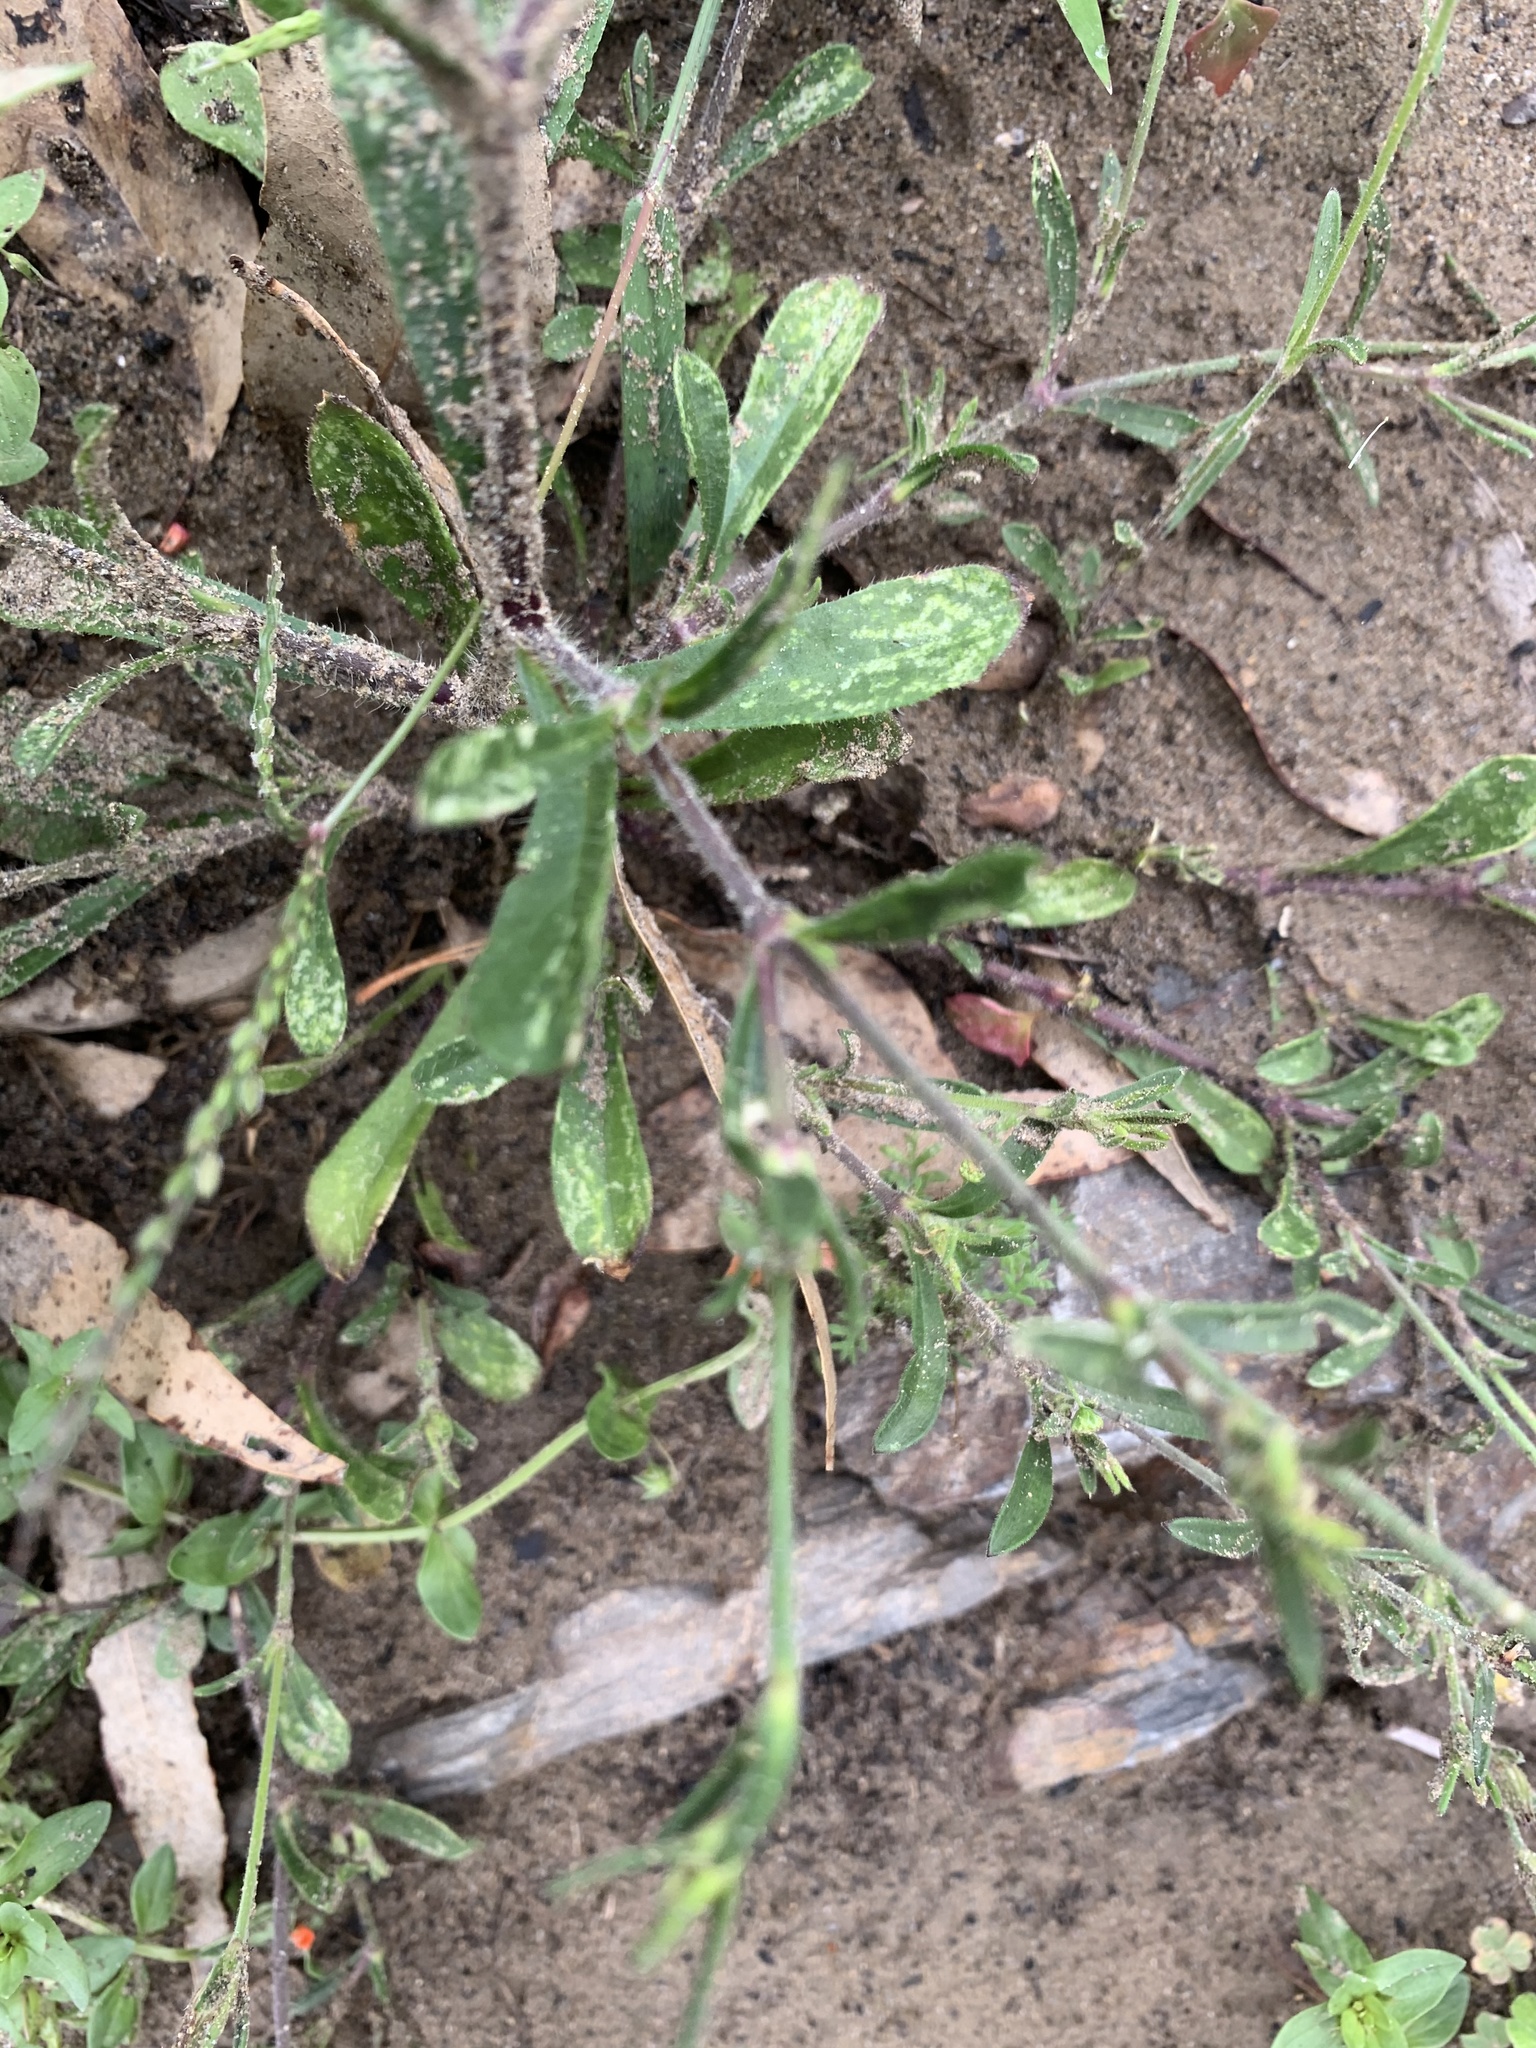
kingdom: Plantae
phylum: Tracheophyta
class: Magnoliopsida
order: Caryophyllales
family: Caryophyllaceae
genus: Silene
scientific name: Silene gallica
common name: Small-flowered catchfly
